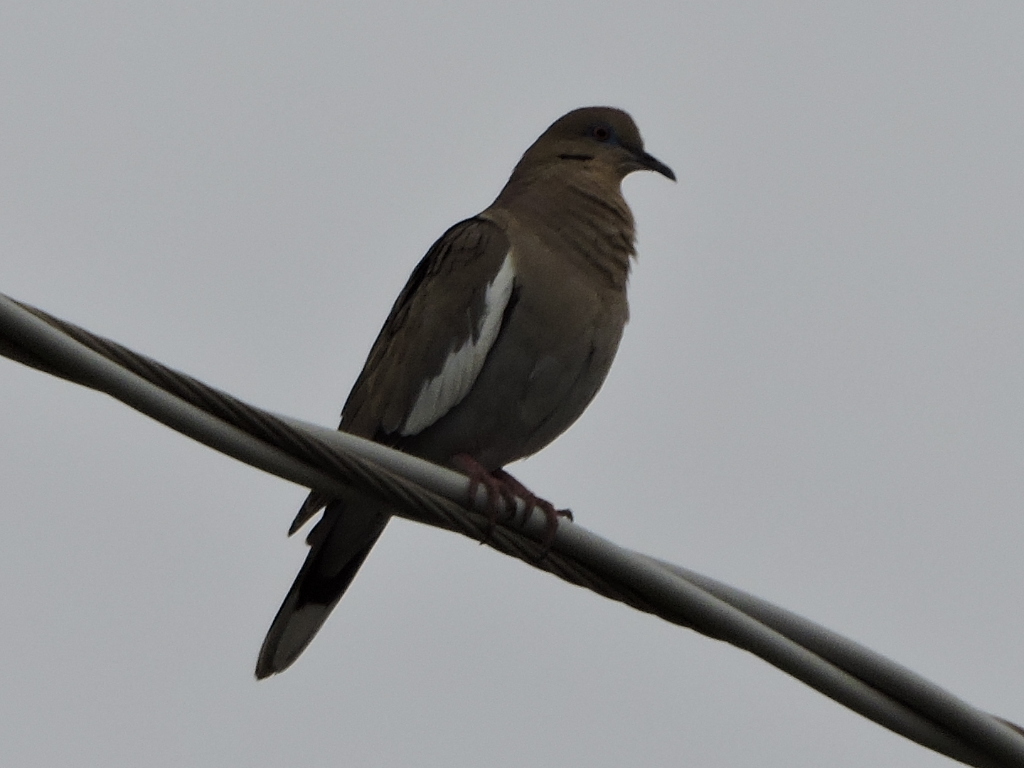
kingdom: Animalia
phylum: Chordata
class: Aves
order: Columbiformes
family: Columbidae
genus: Zenaida
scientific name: Zenaida asiatica
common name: White-winged dove
